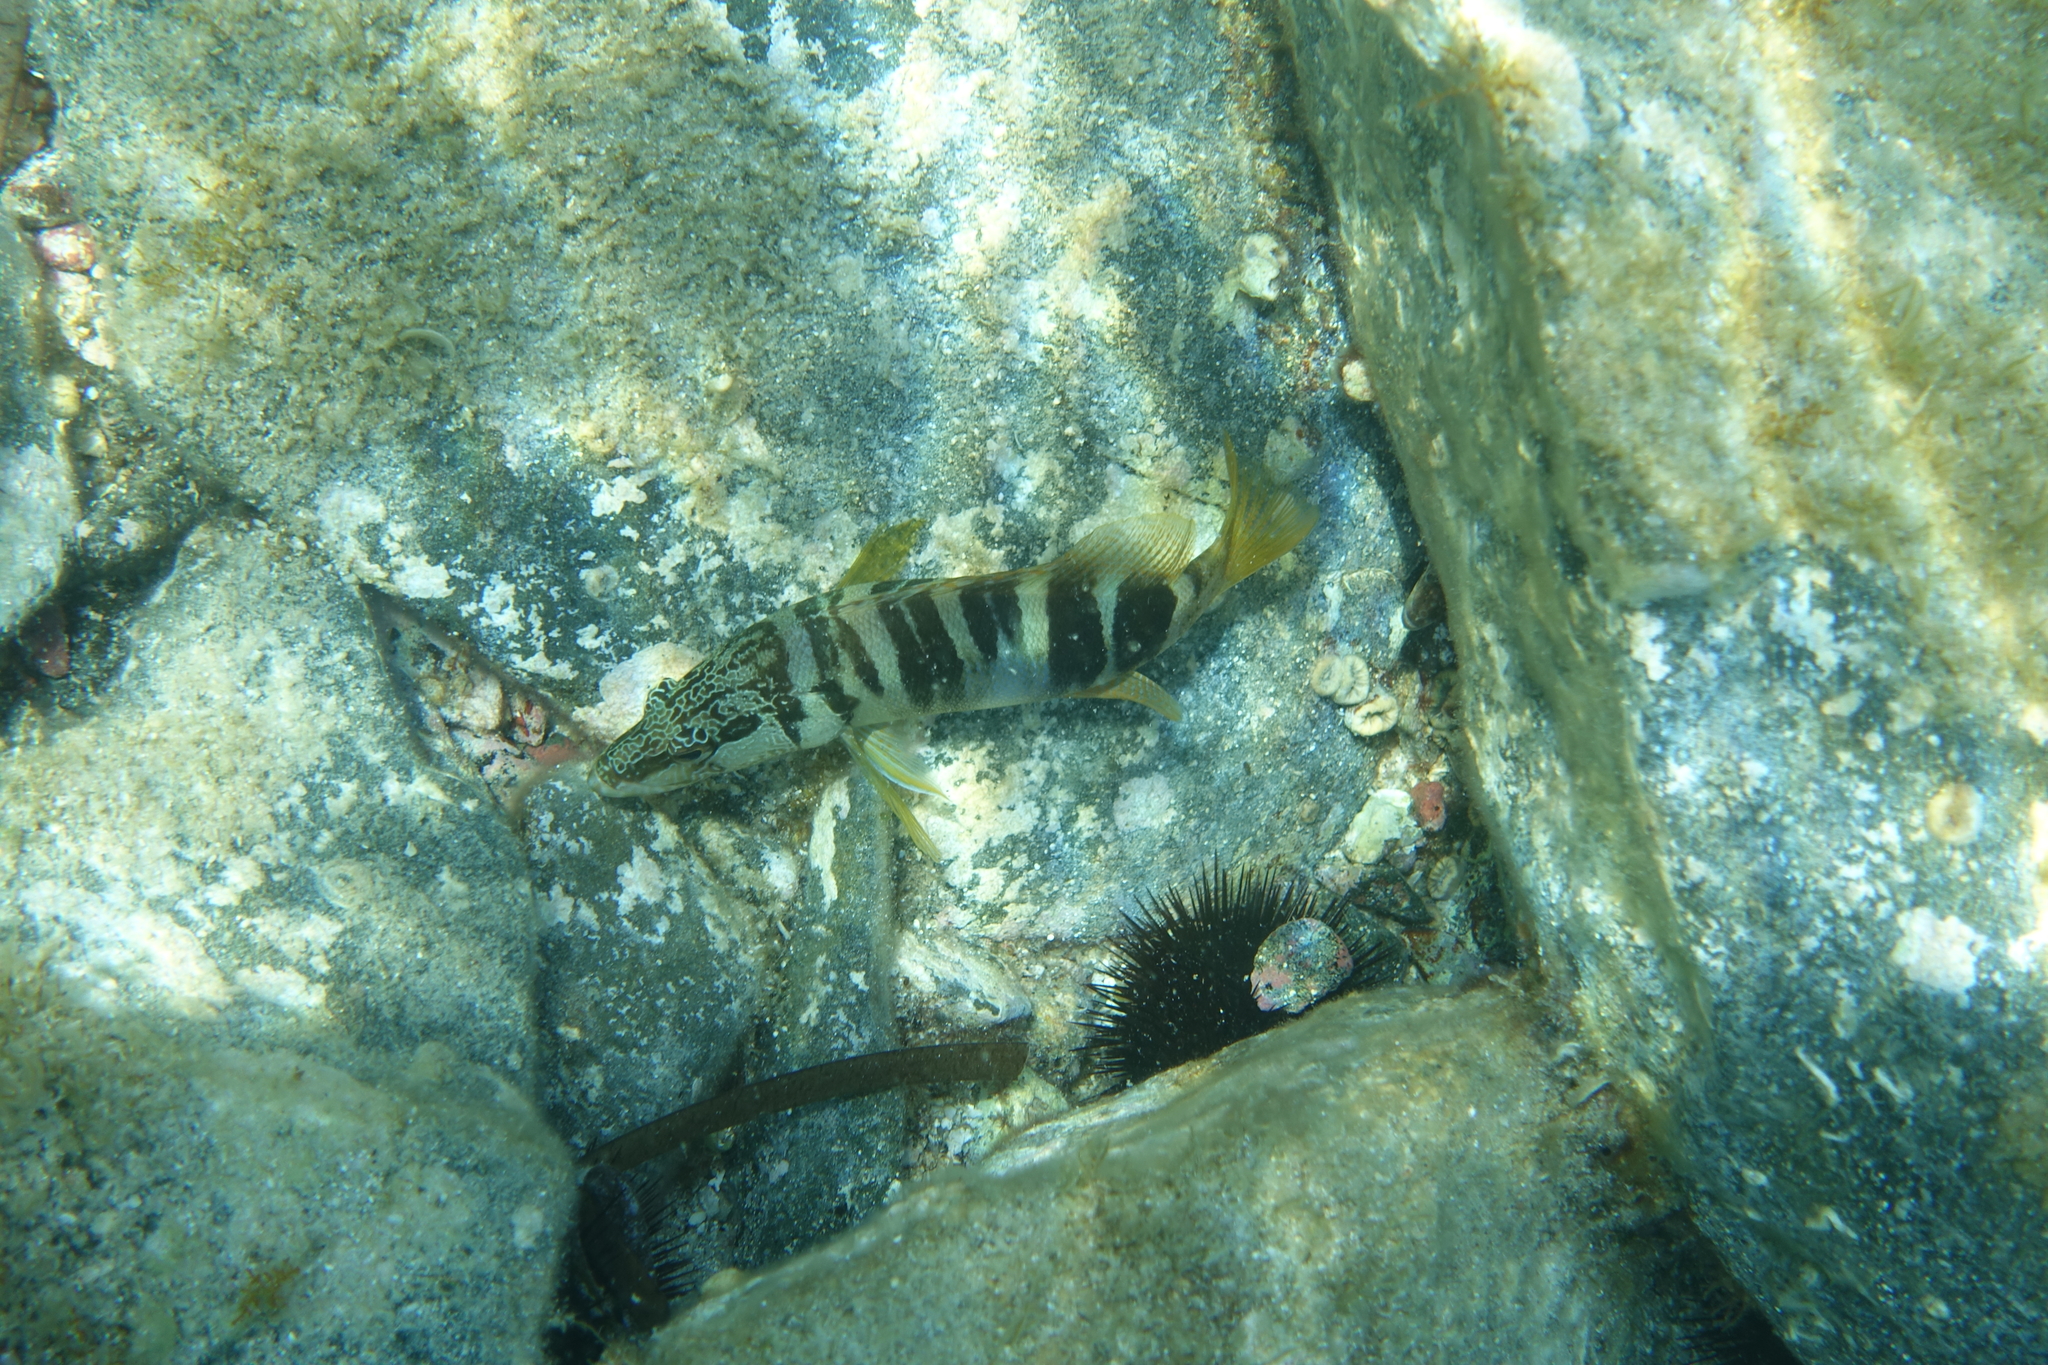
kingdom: Animalia
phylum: Chordata
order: Perciformes
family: Serranidae
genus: Serranus
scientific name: Serranus scriba
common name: Painted comber
